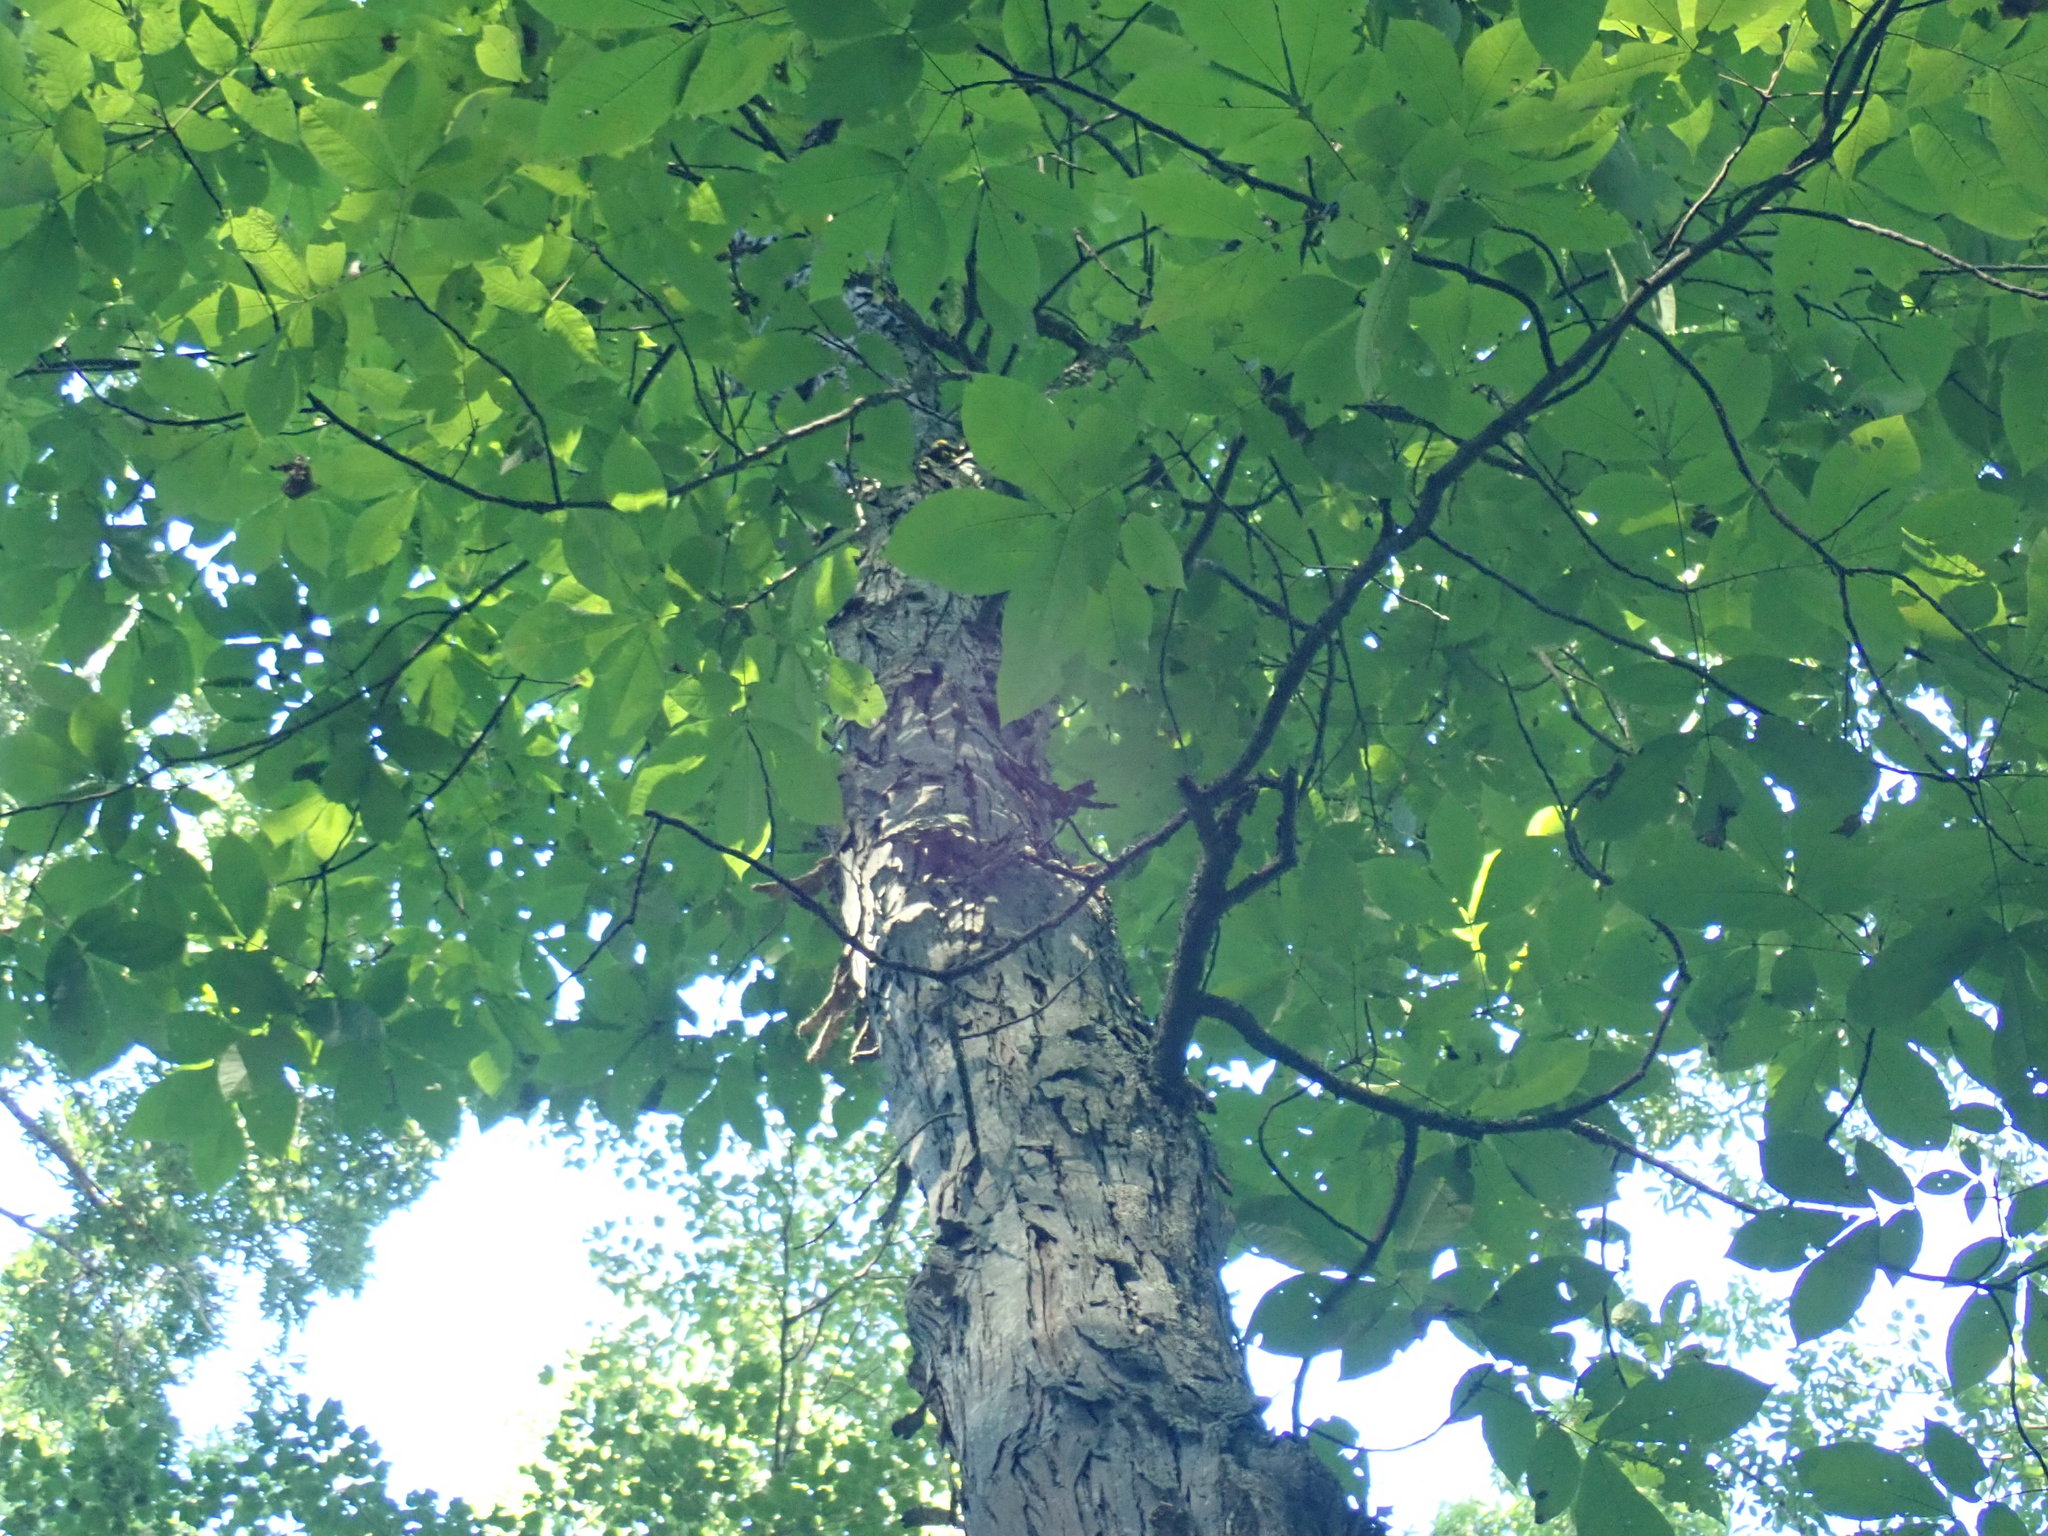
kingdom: Plantae
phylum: Tracheophyta
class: Magnoliopsida
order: Fagales
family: Juglandaceae
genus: Carya
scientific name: Carya ovata
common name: Shagbark hickory
